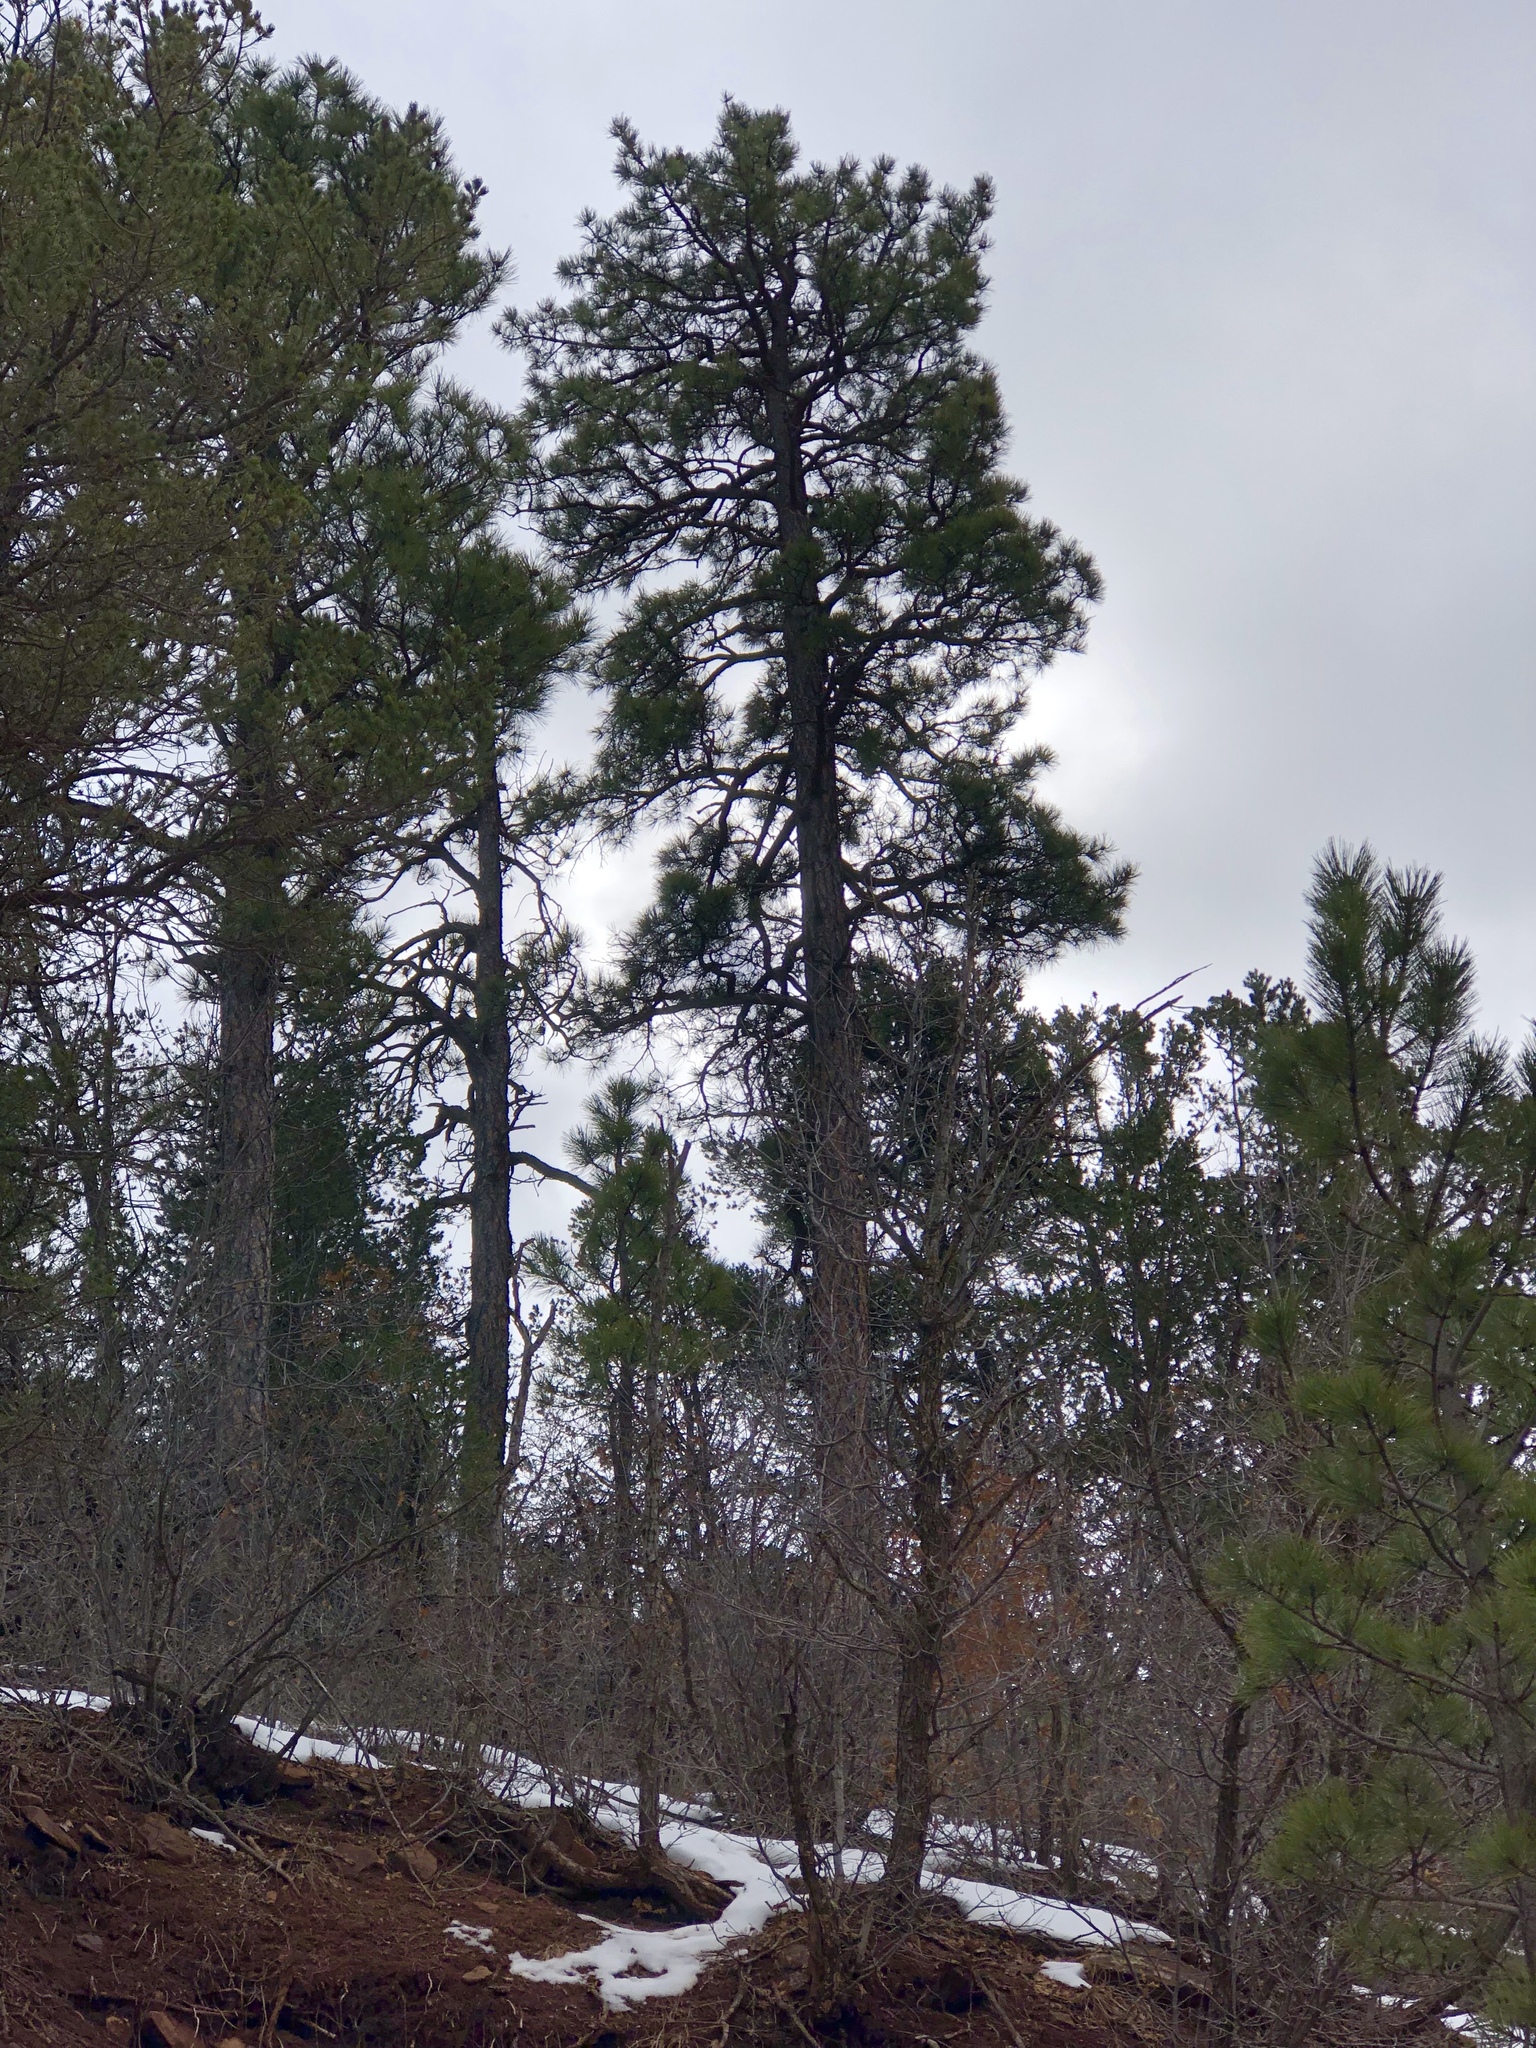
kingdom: Plantae
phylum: Tracheophyta
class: Pinopsida
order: Pinales
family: Pinaceae
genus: Pinus
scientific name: Pinus ponderosa
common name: Western yellow-pine
